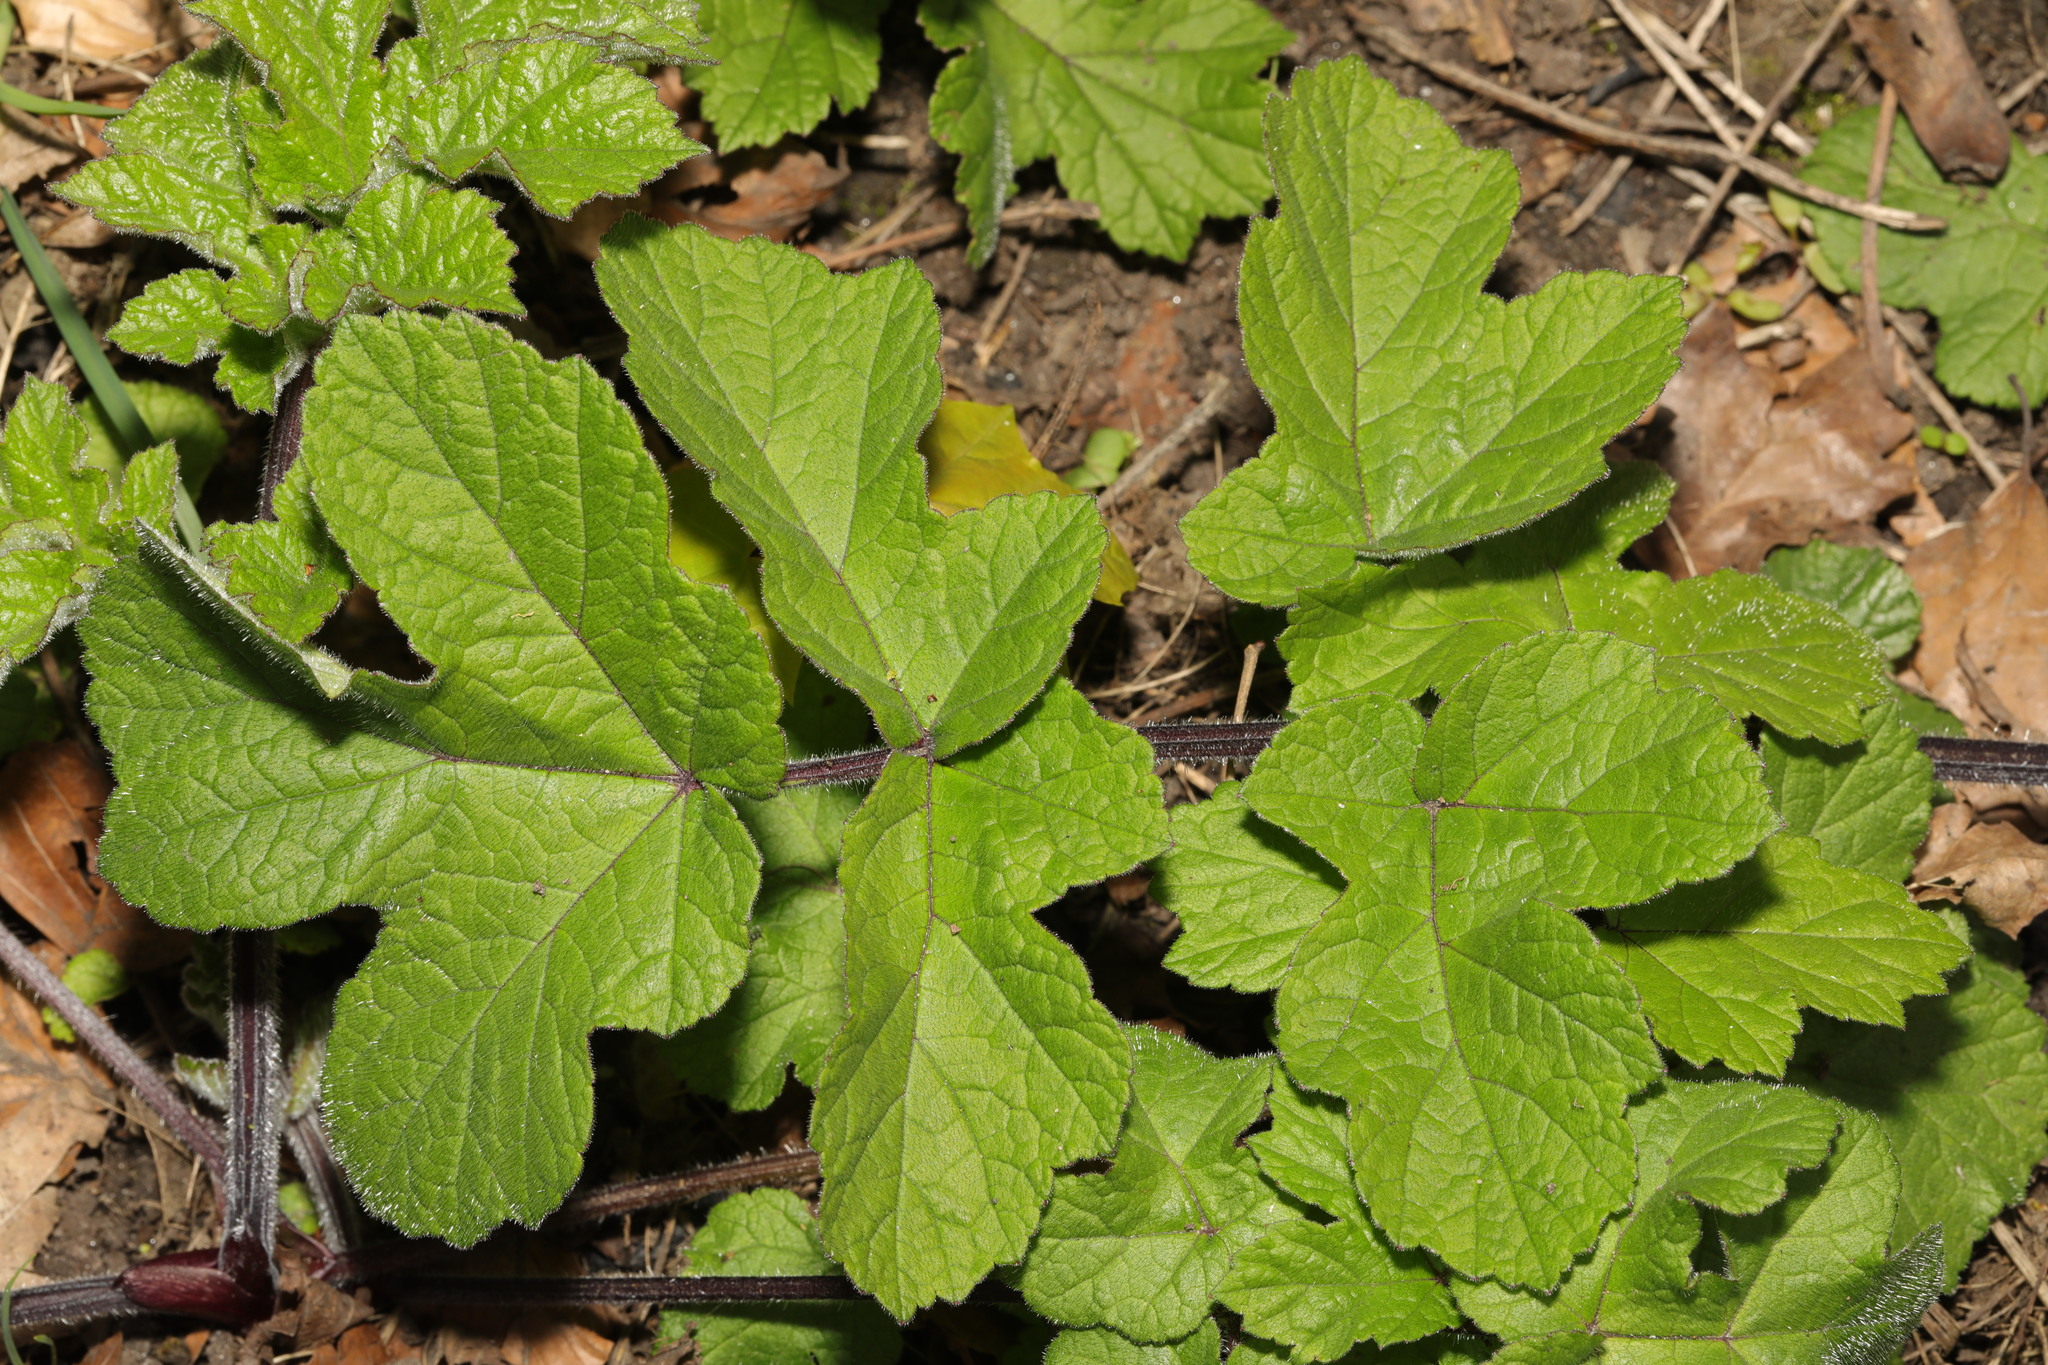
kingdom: Plantae
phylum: Tracheophyta
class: Magnoliopsida
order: Apiales
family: Apiaceae
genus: Heracleum
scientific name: Heracleum sphondylium
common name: Hogweed
